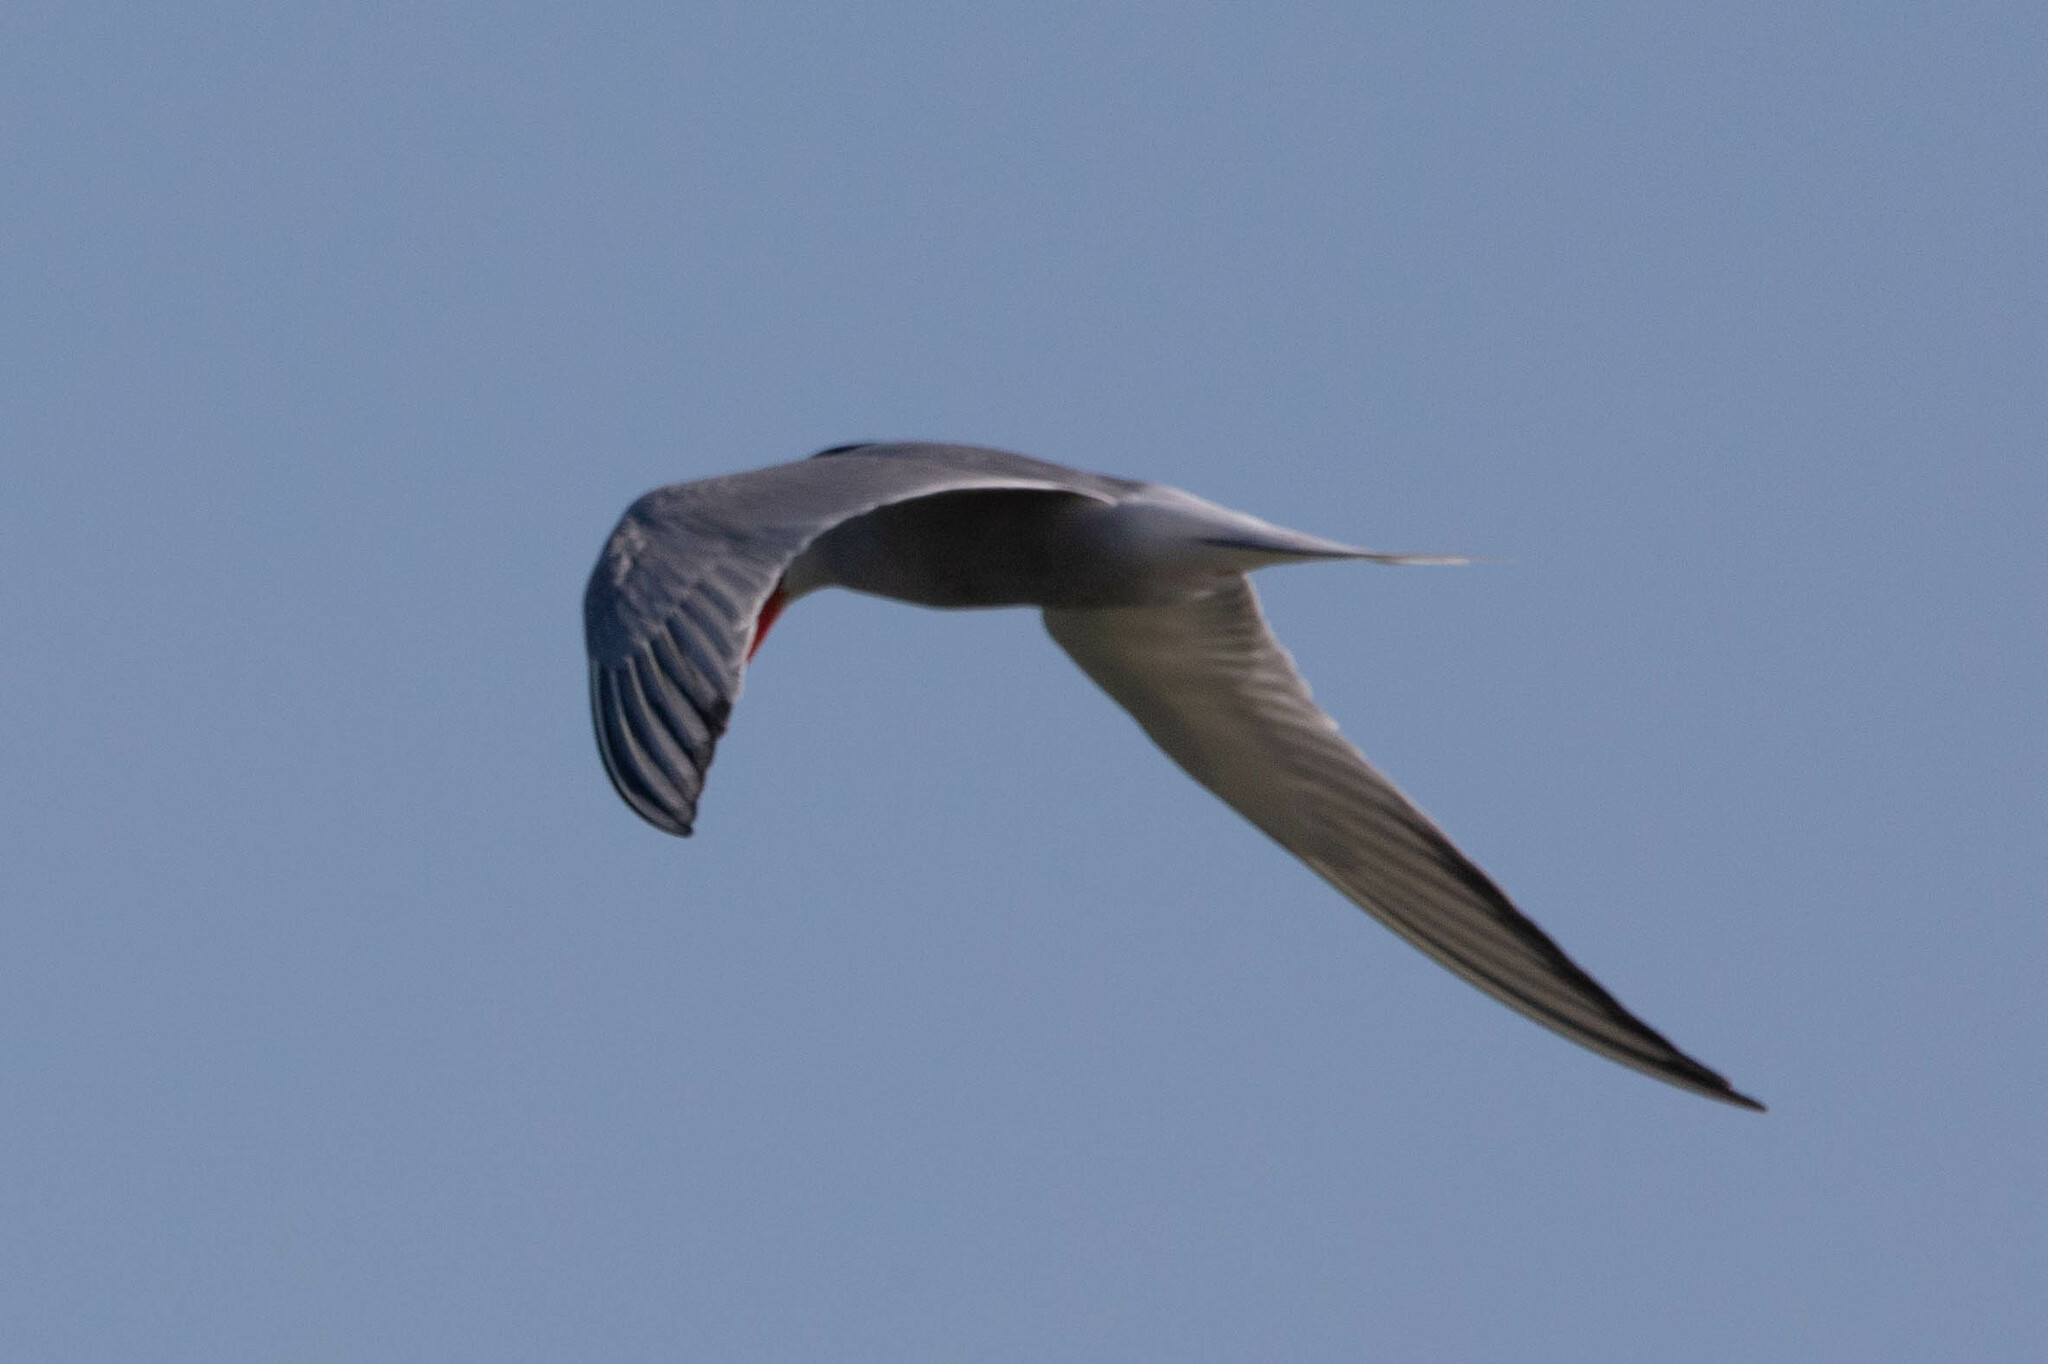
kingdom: Animalia
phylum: Chordata
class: Aves
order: Charadriiformes
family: Laridae
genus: Sterna
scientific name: Sterna hirundo
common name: Common tern
